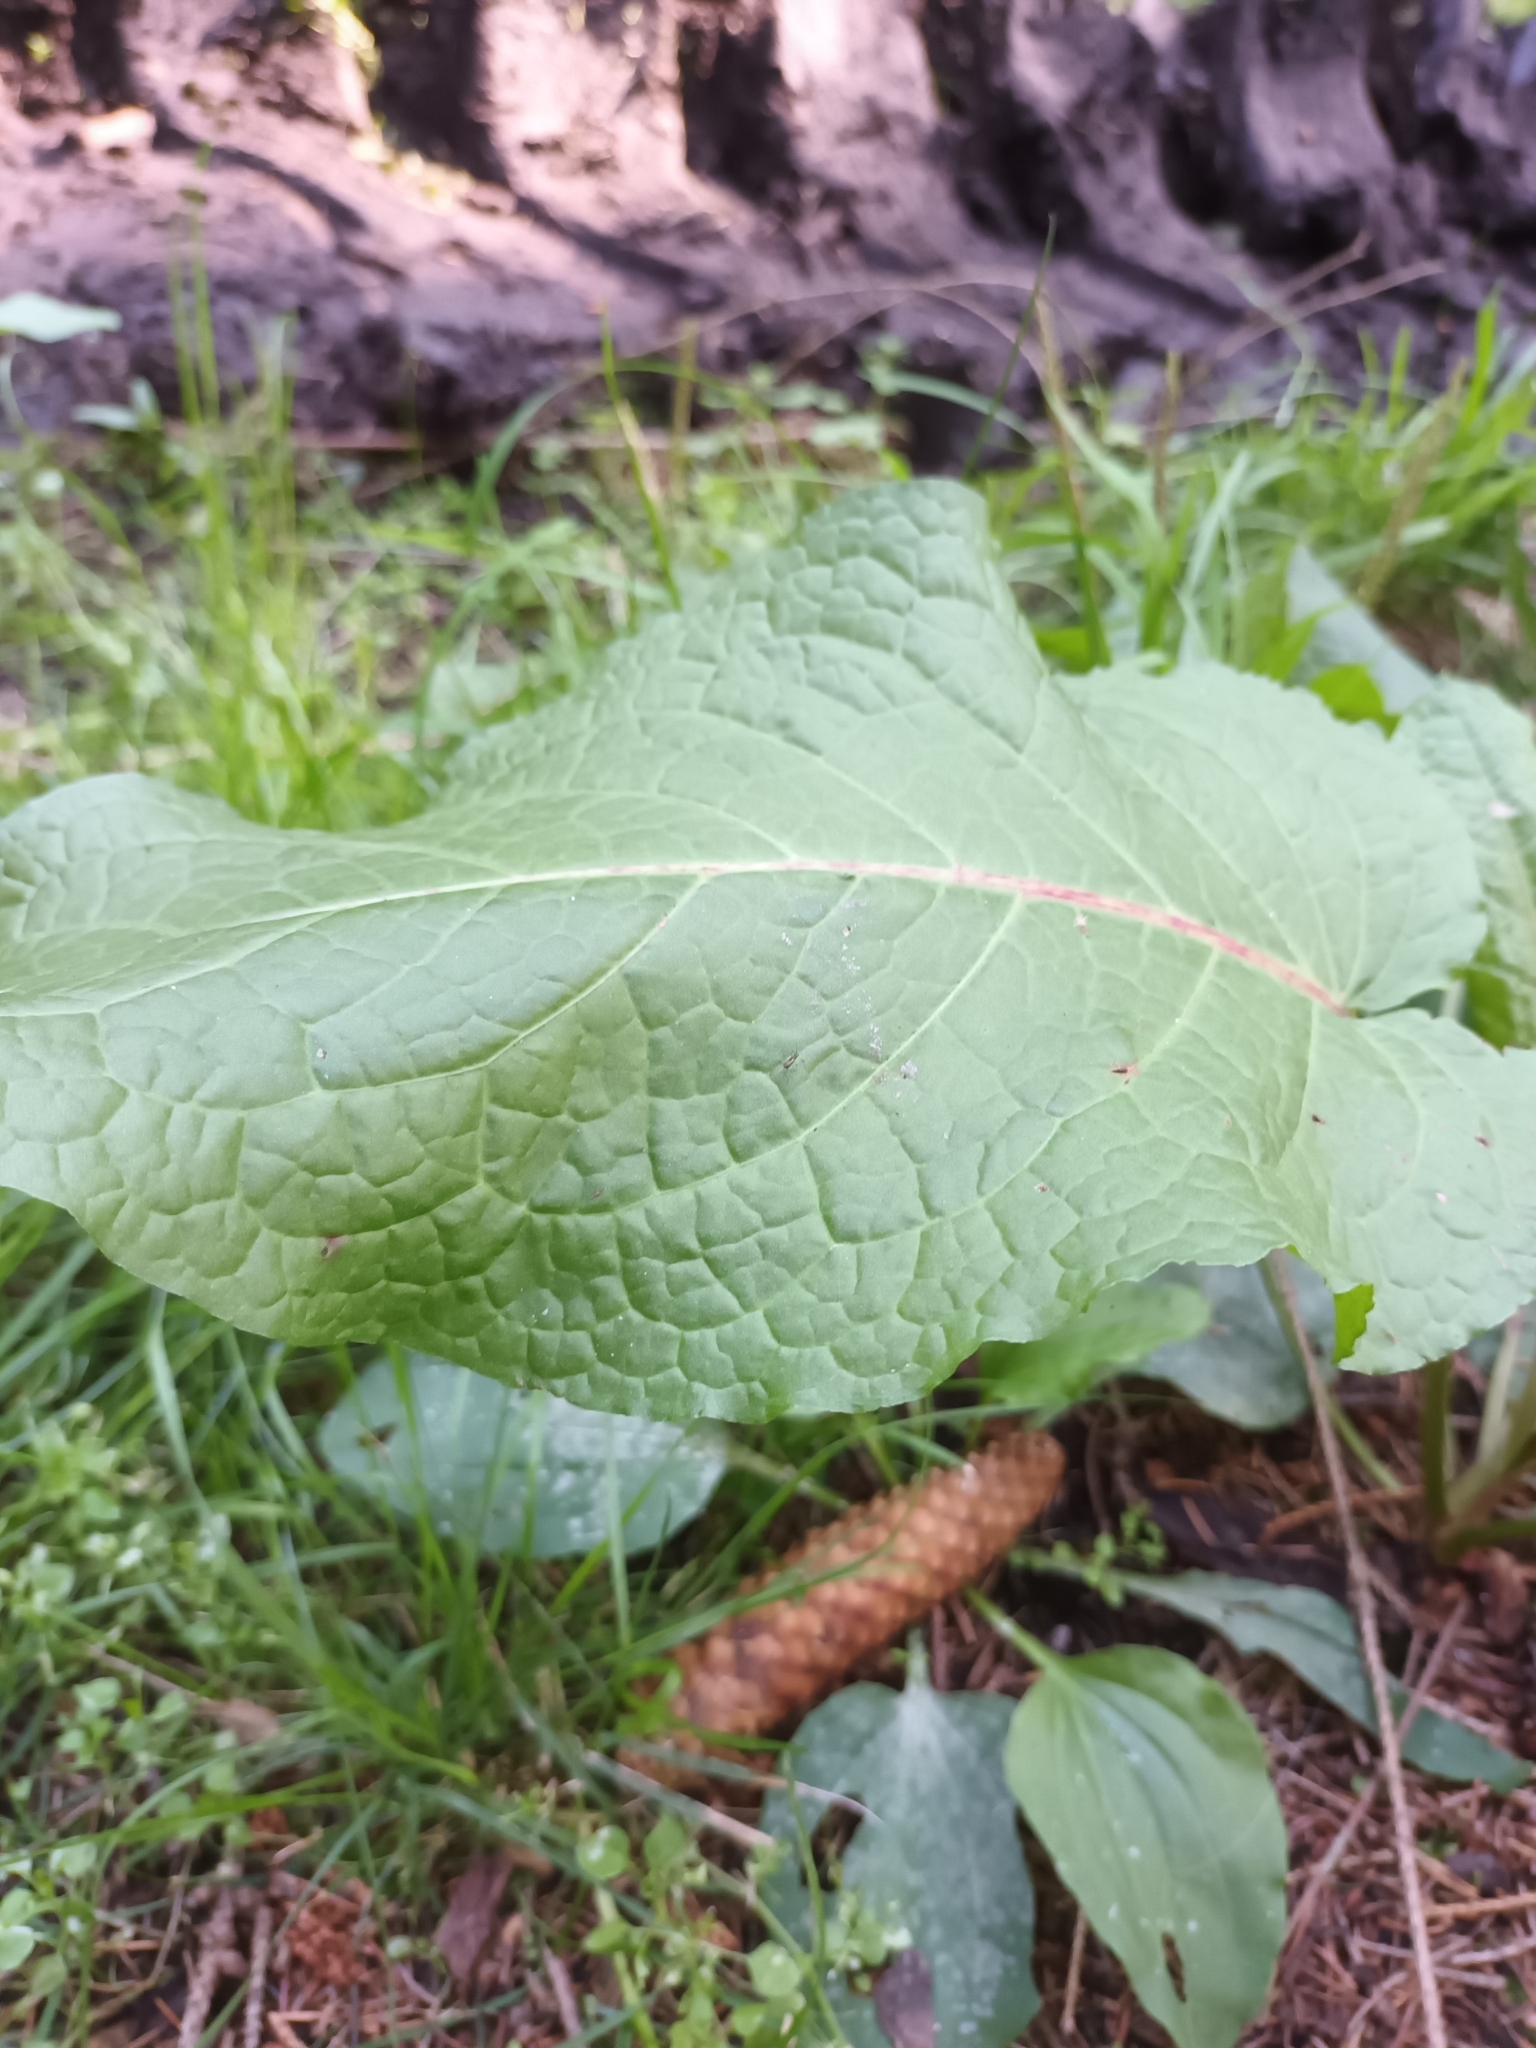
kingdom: Plantae
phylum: Tracheophyta
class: Magnoliopsida
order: Caryophyllales
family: Polygonaceae
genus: Rumex
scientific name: Rumex obtusifolius
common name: Bitter dock
